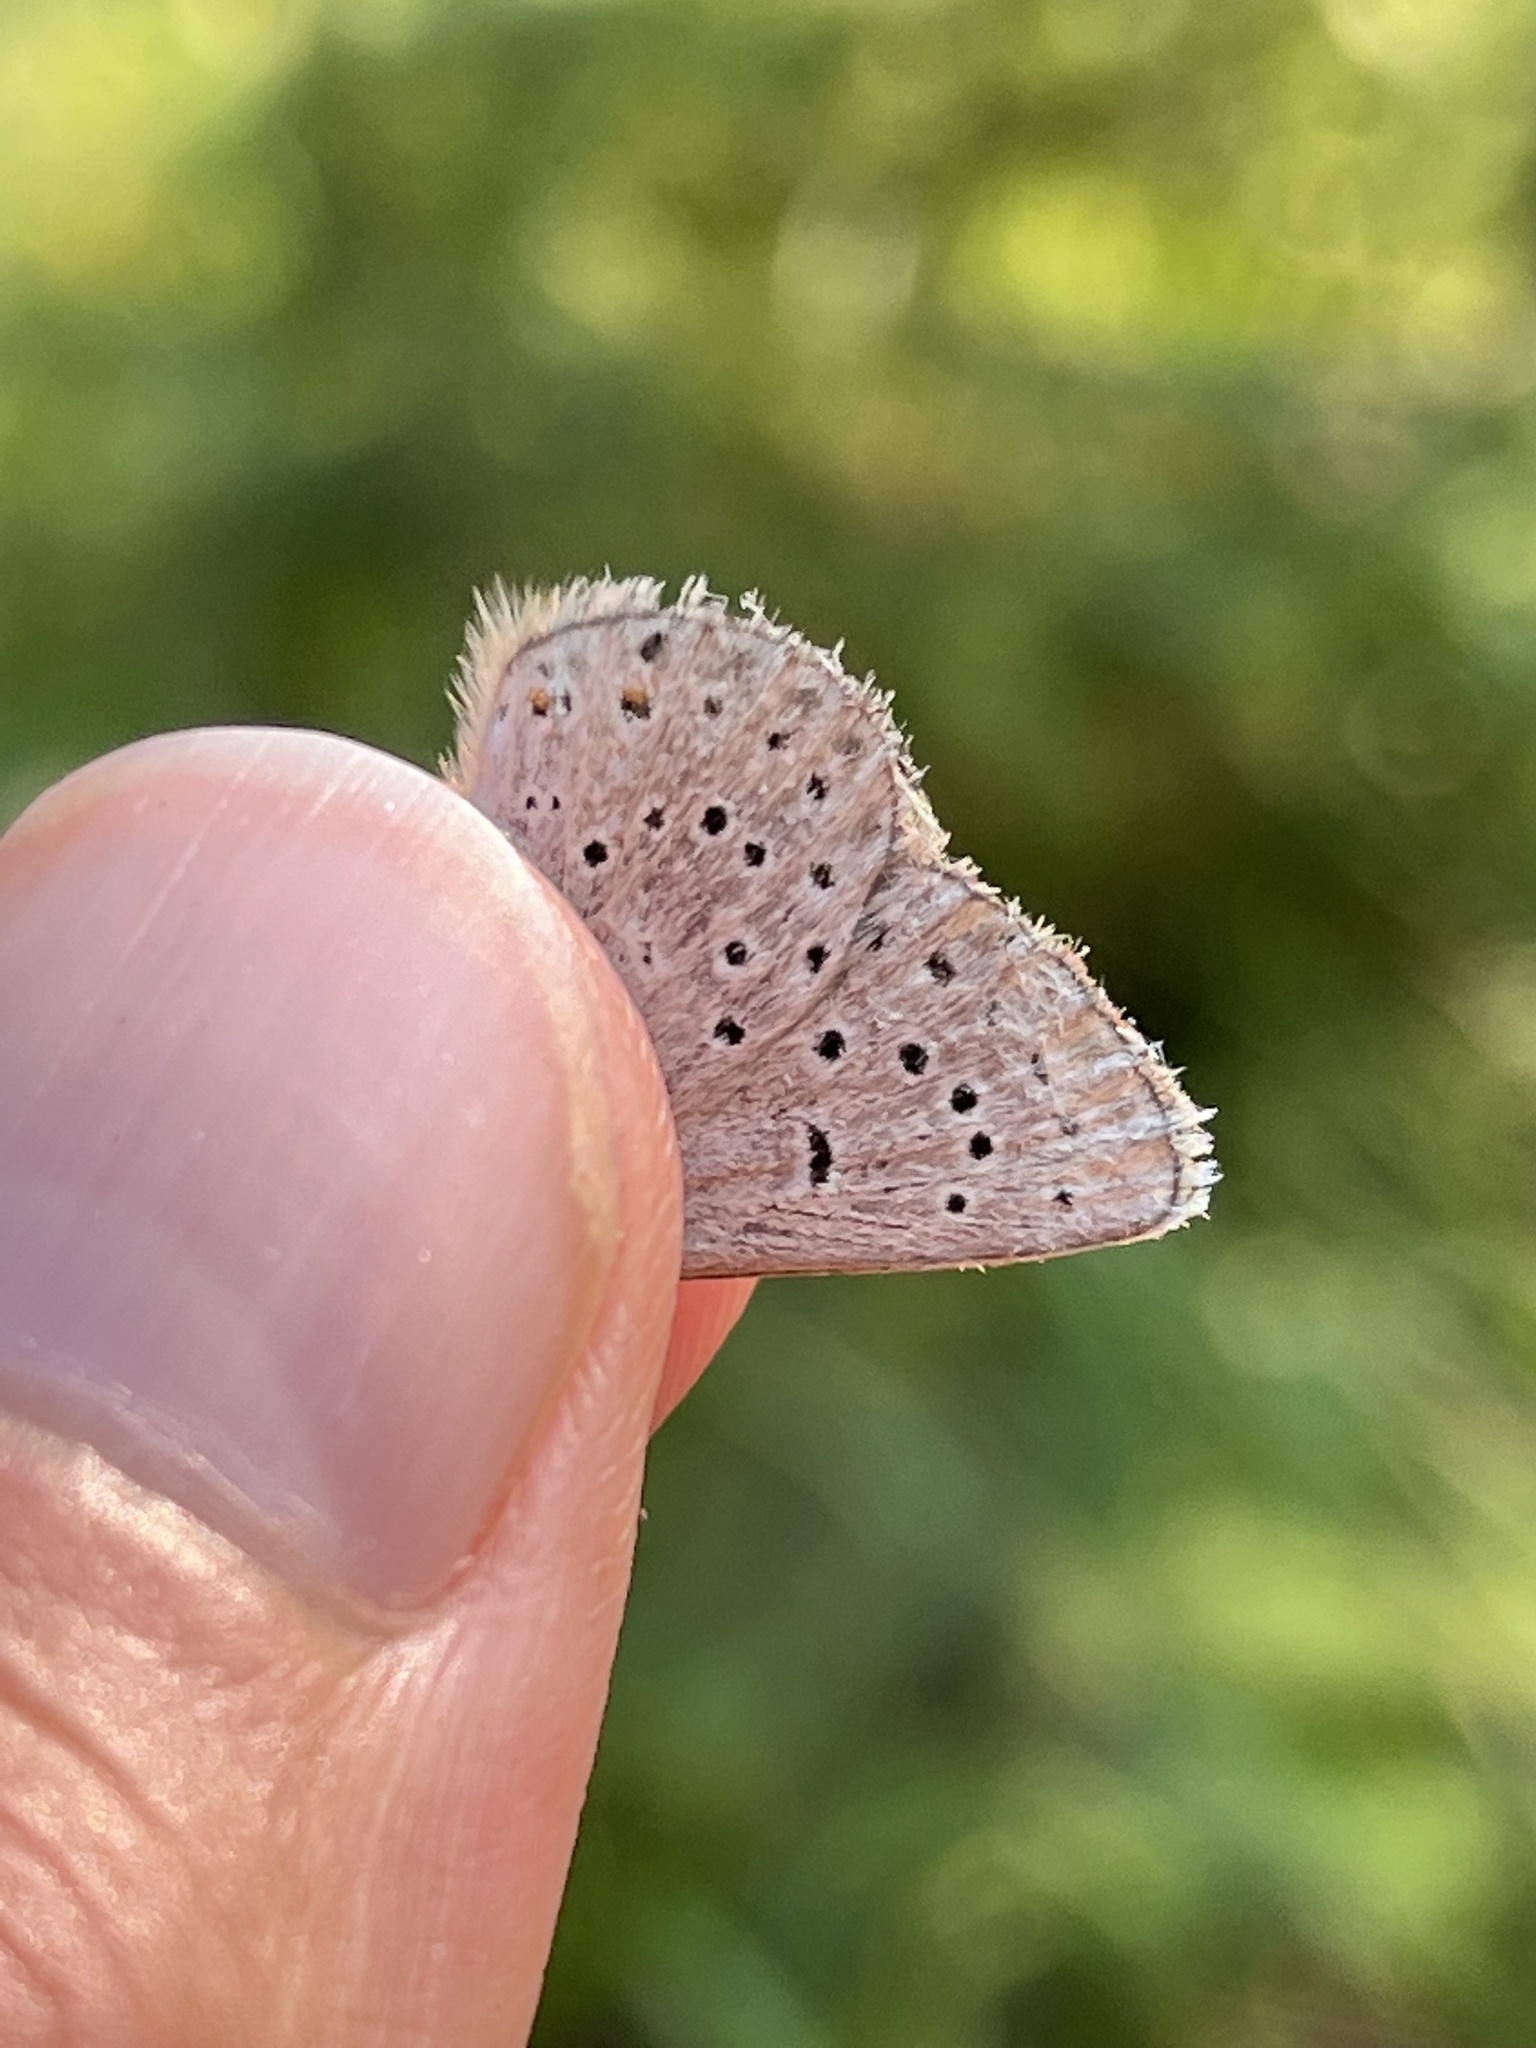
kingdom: Animalia
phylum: Arthropoda
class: Insecta
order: Lepidoptera
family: Lycaenidae
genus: Icaricia
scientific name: Icaricia saepiolus
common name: Greenish blue
